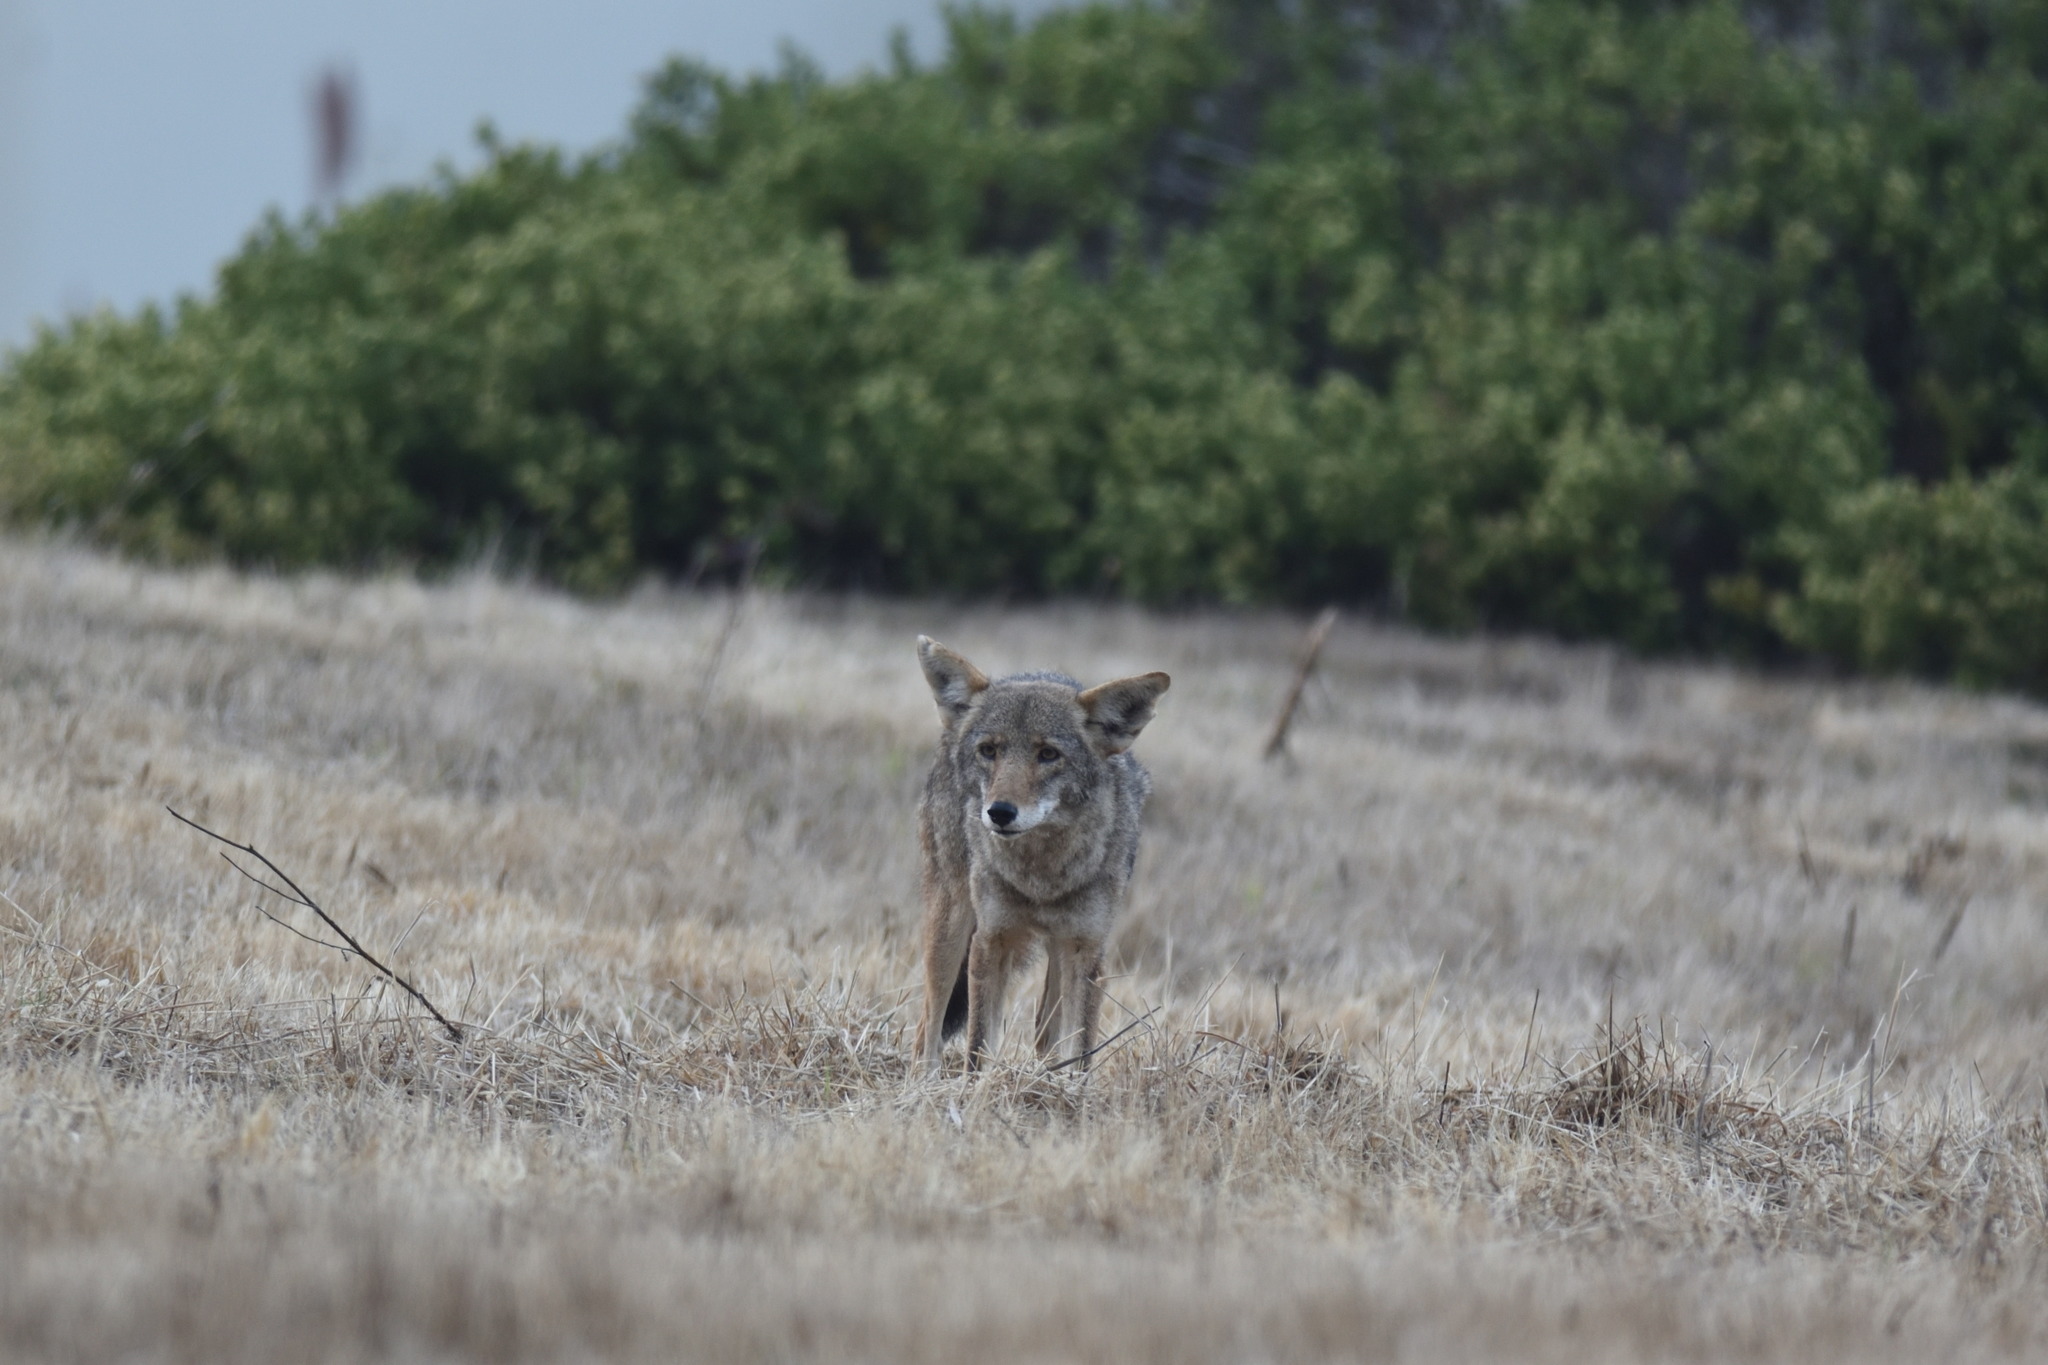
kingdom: Animalia
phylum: Chordata
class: Mammalia
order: Carnivora
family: Canidae
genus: Canis
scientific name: Canis latrans
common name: Coyote
